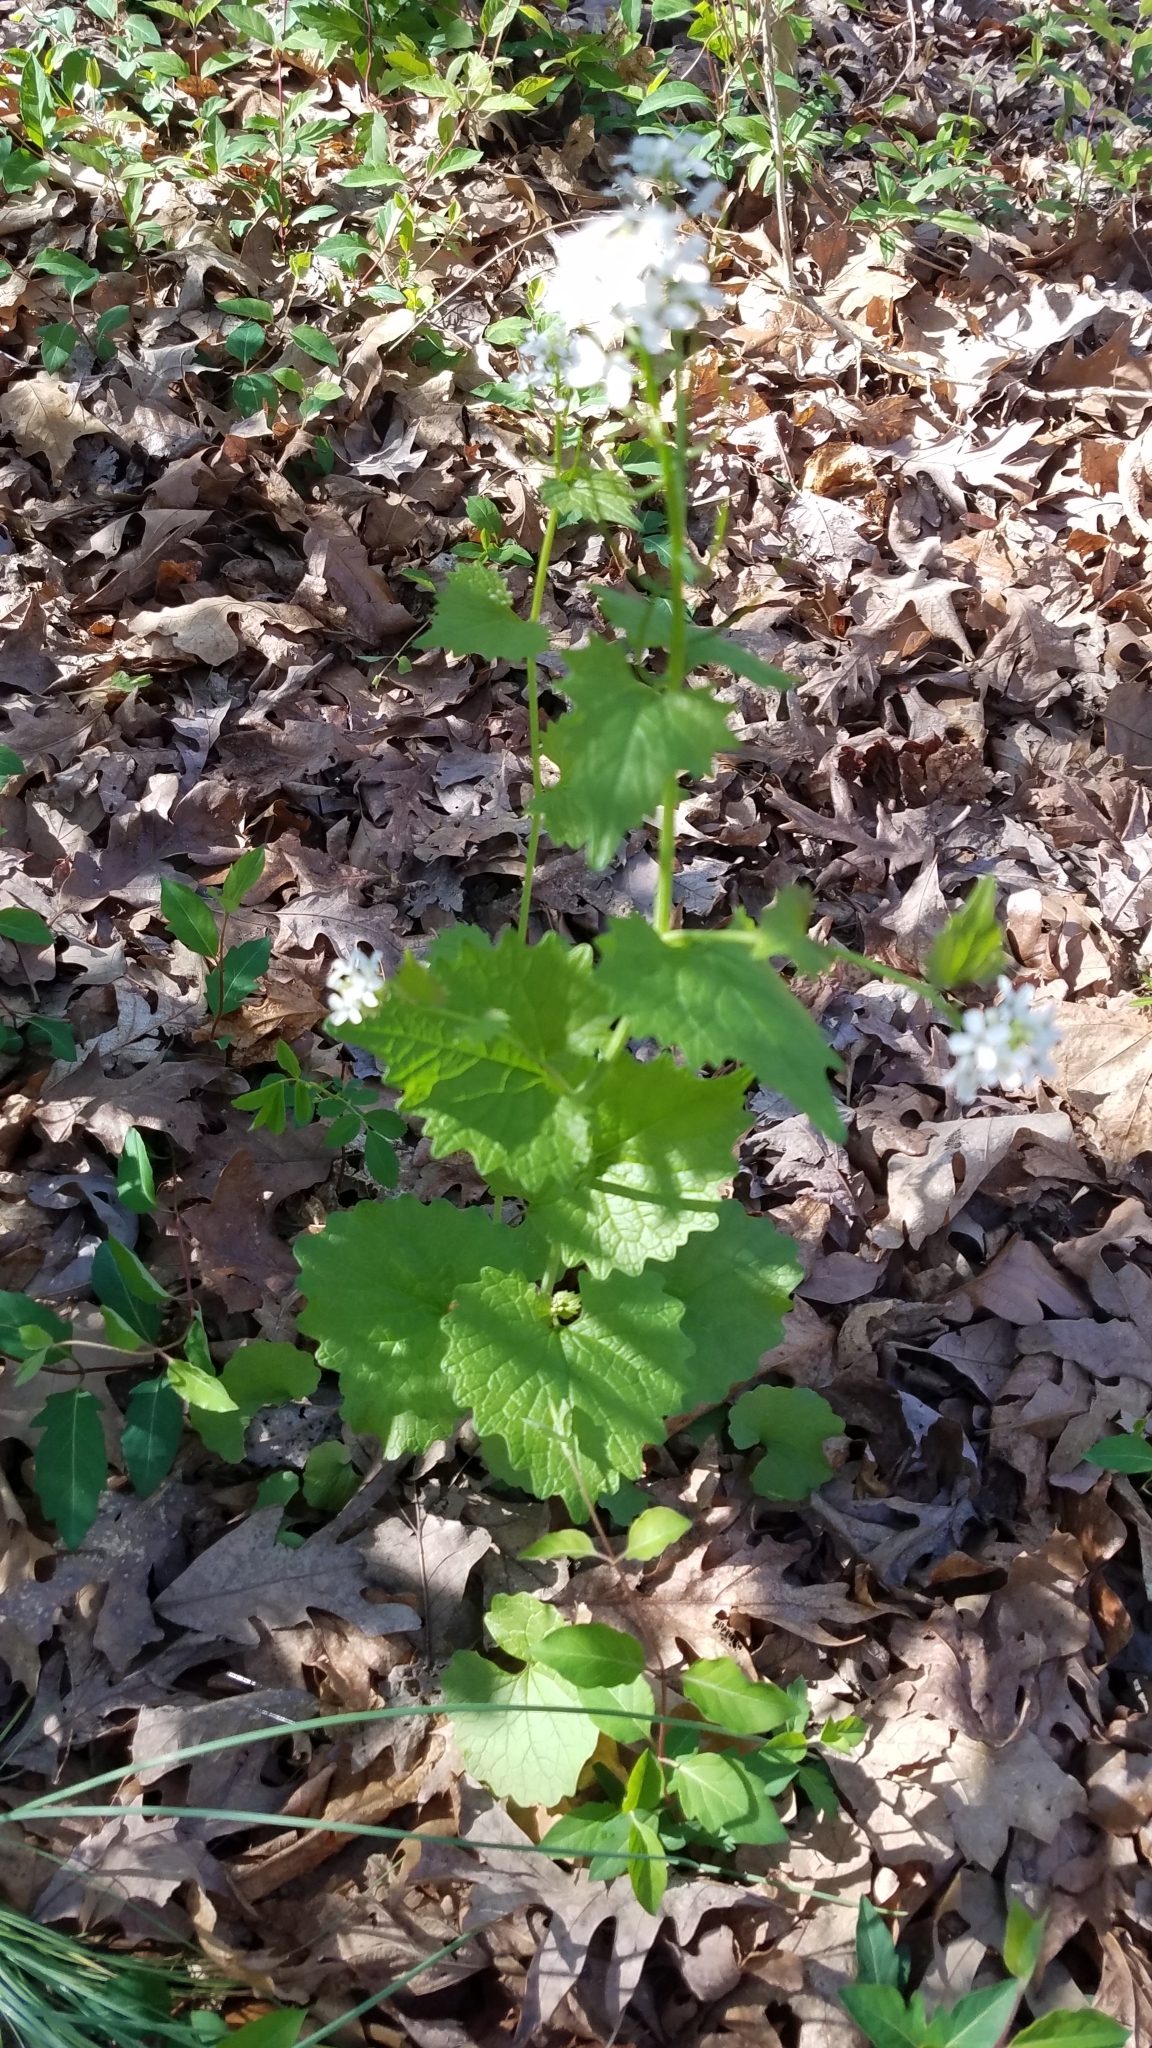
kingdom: Plantae
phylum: Tracheophyta
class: Magnoliopsida
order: Brassicales
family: Brassicaceae
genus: Alliaria
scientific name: Alliaria petiolata
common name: Garlic mustard
